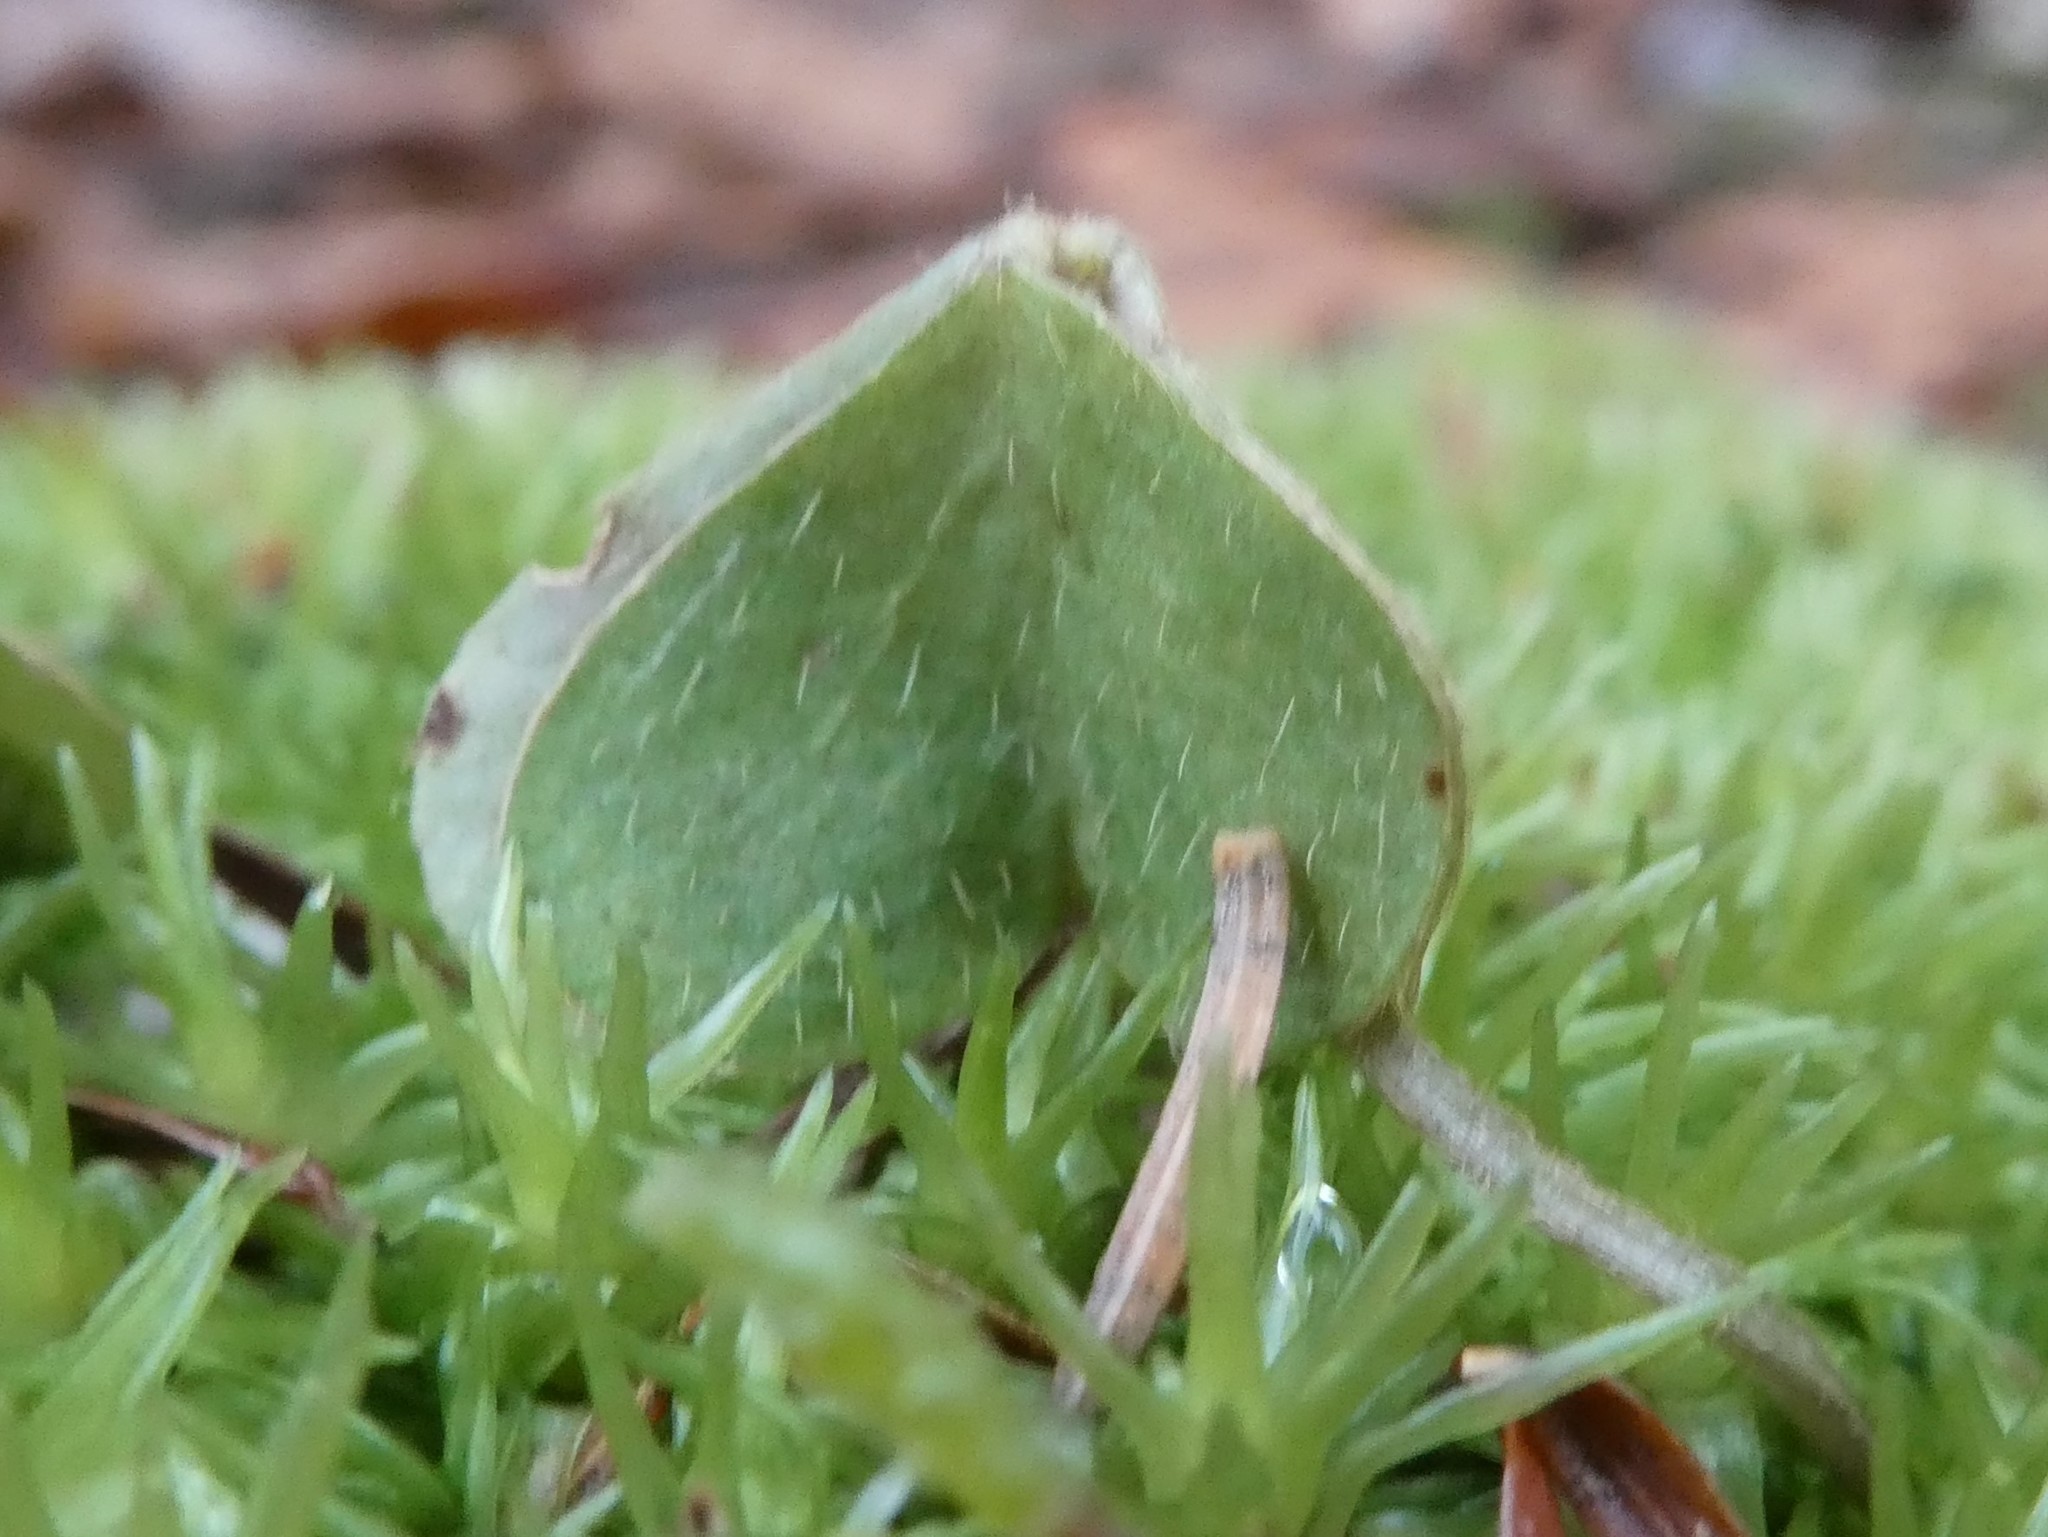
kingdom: Plantae
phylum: Tracheophyta
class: Magnoliopsida
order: Oxalidales
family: Oxalidaceae
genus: Oxalis
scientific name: Oxalis montana
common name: American wood-sorrel
